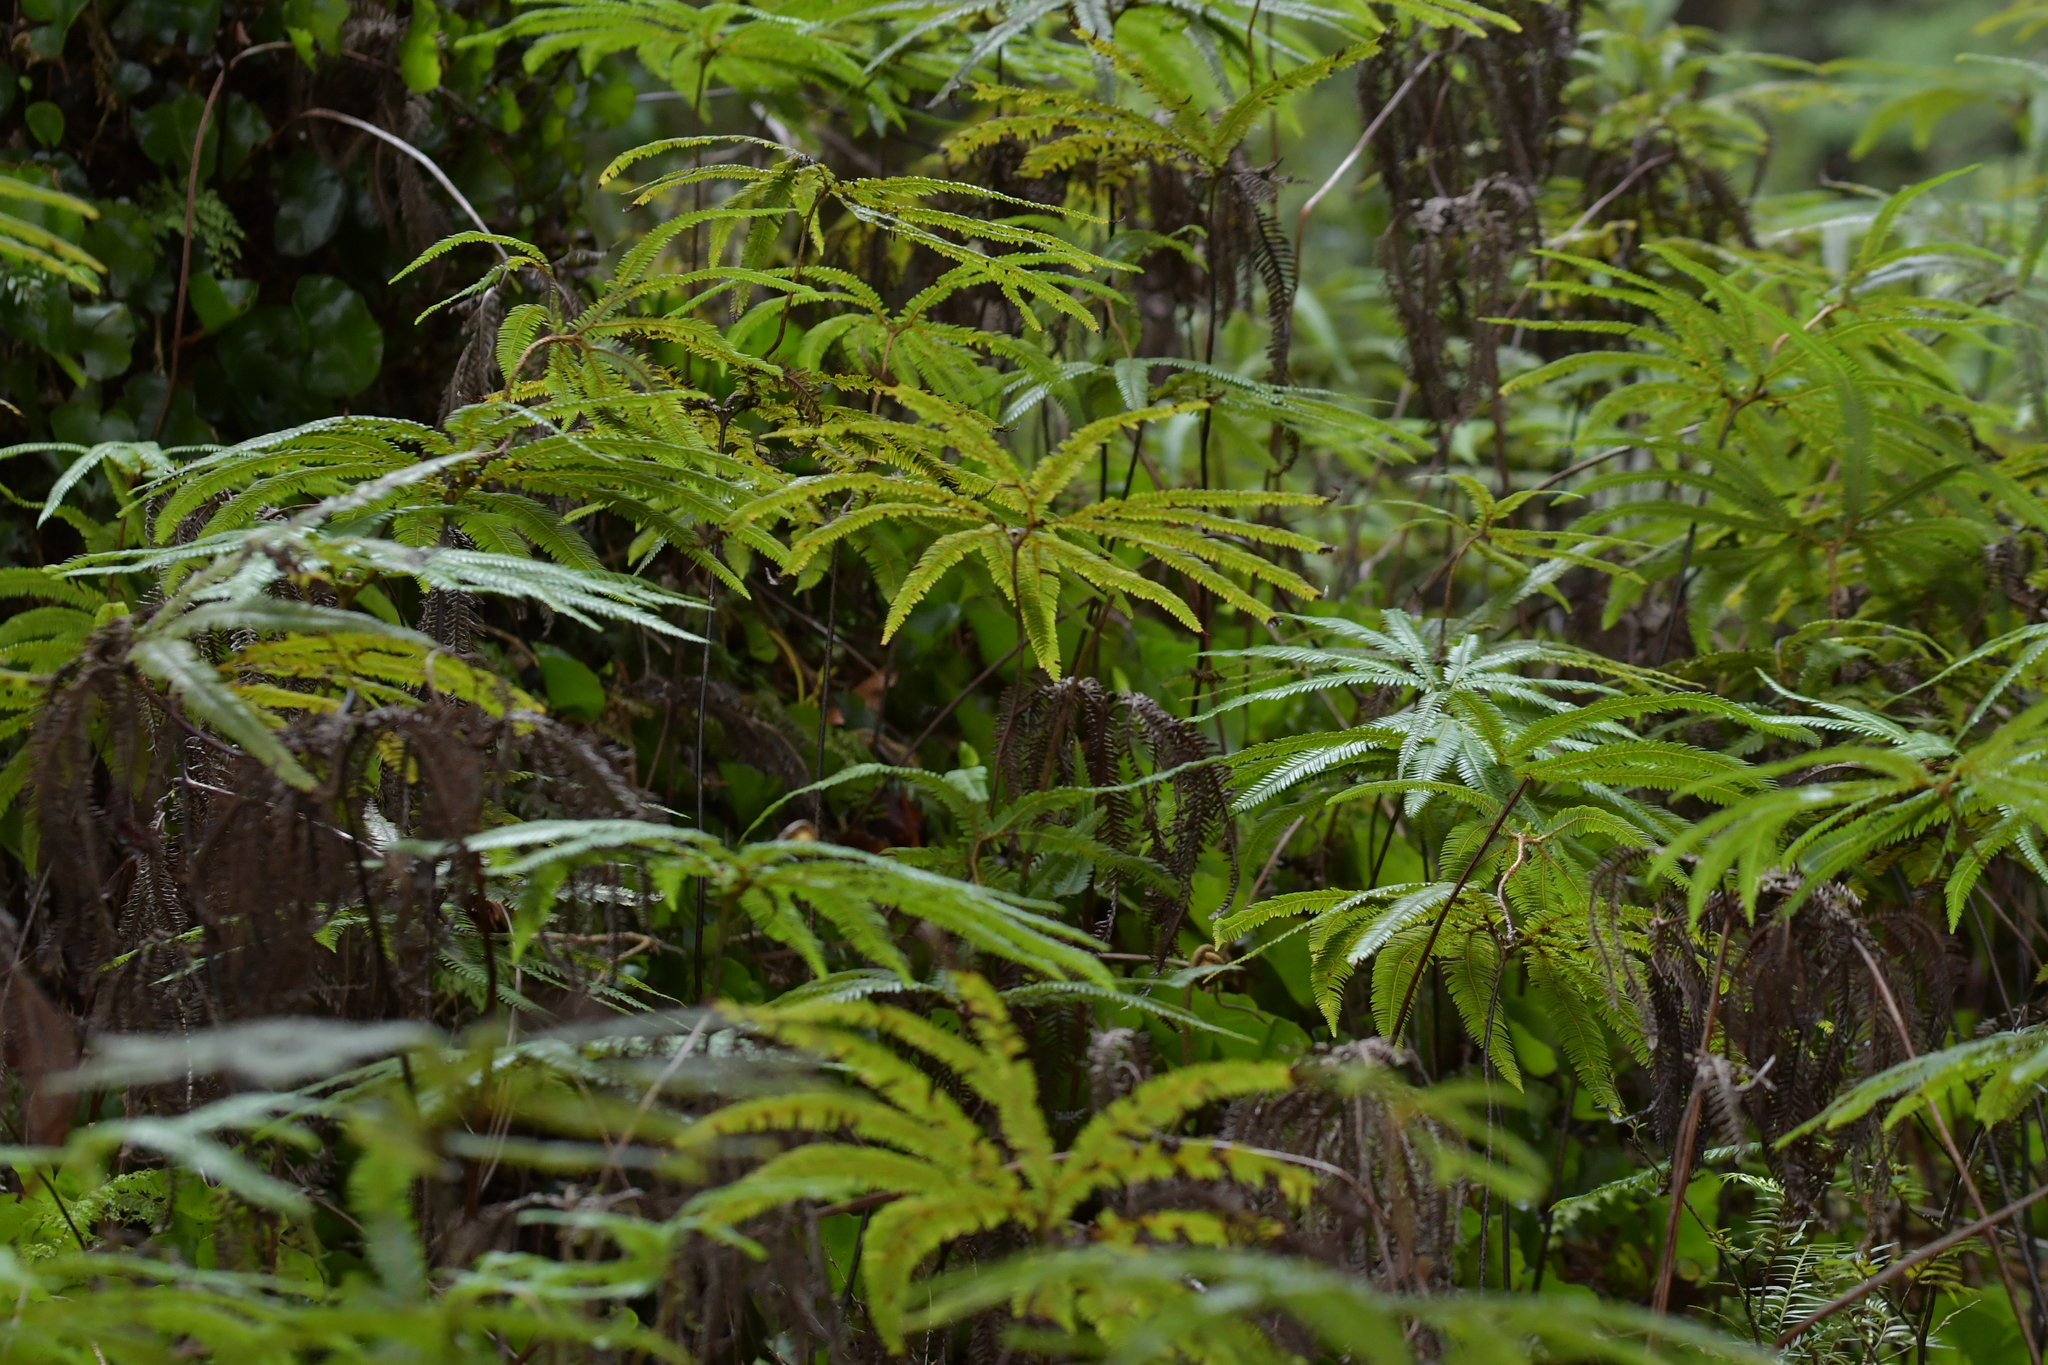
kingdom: Plantae
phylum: Tracheophyta
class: Polypodiopsida
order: Gleicheniales
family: Gleicheniaceae
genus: Sticherus
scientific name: Sticherus cunninghamii
